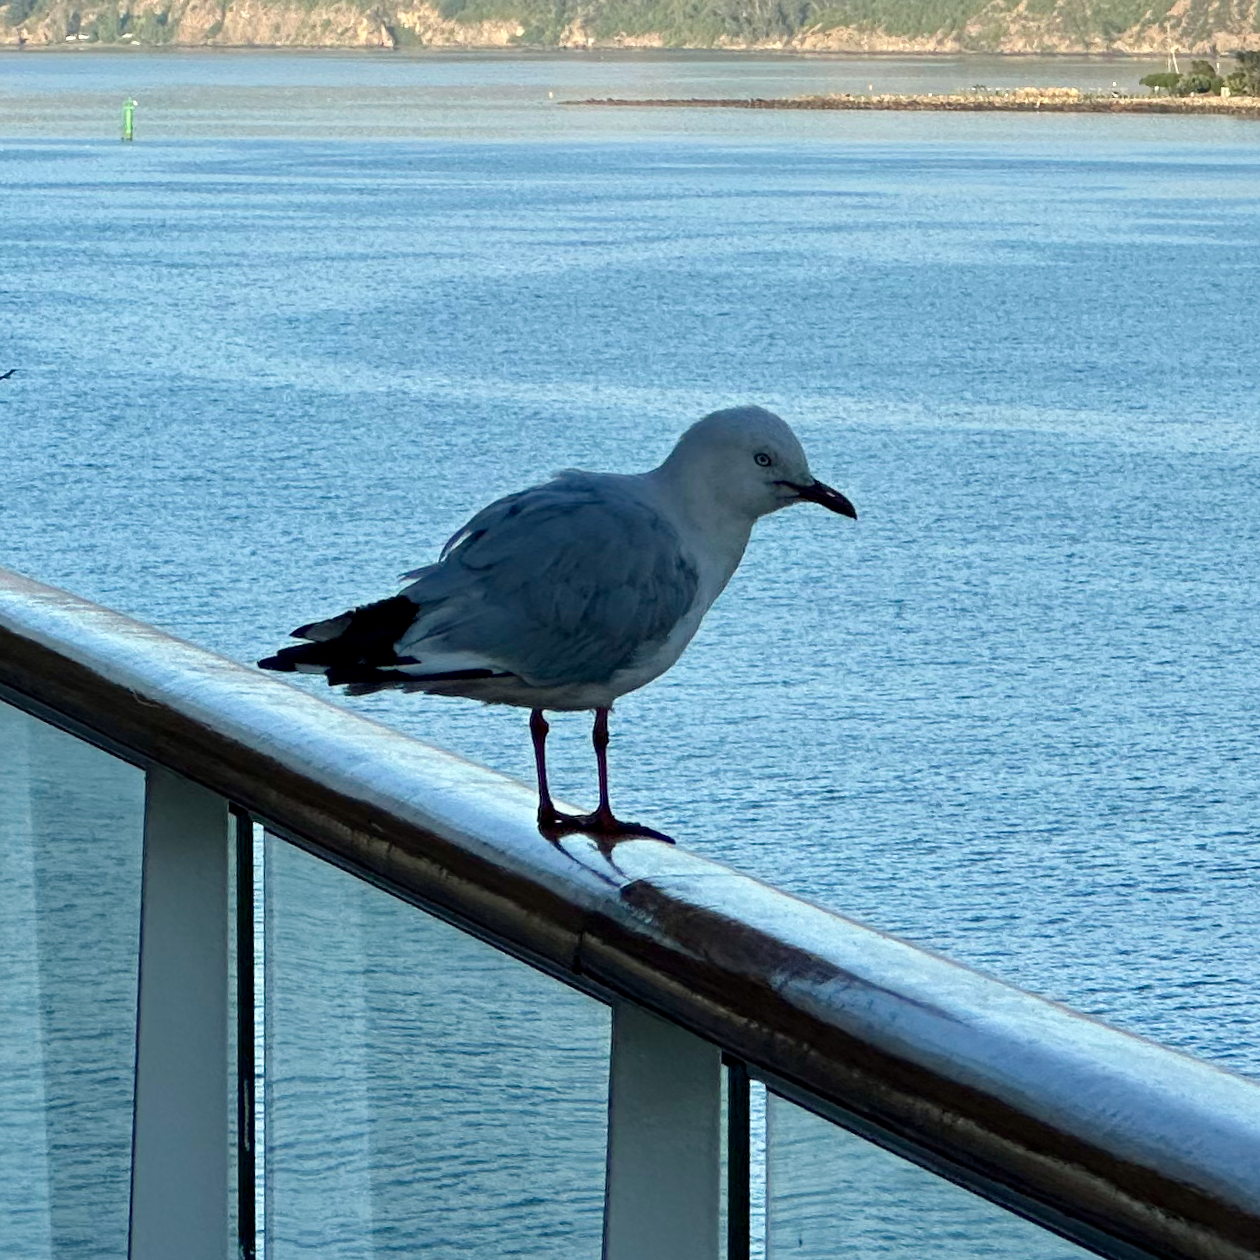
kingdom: Animalia
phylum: Chordata
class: Aves
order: Charadriiformes
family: Laridae
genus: Chroicocephalus
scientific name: Chroicocephalus novaehollandiae
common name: Silver gull
